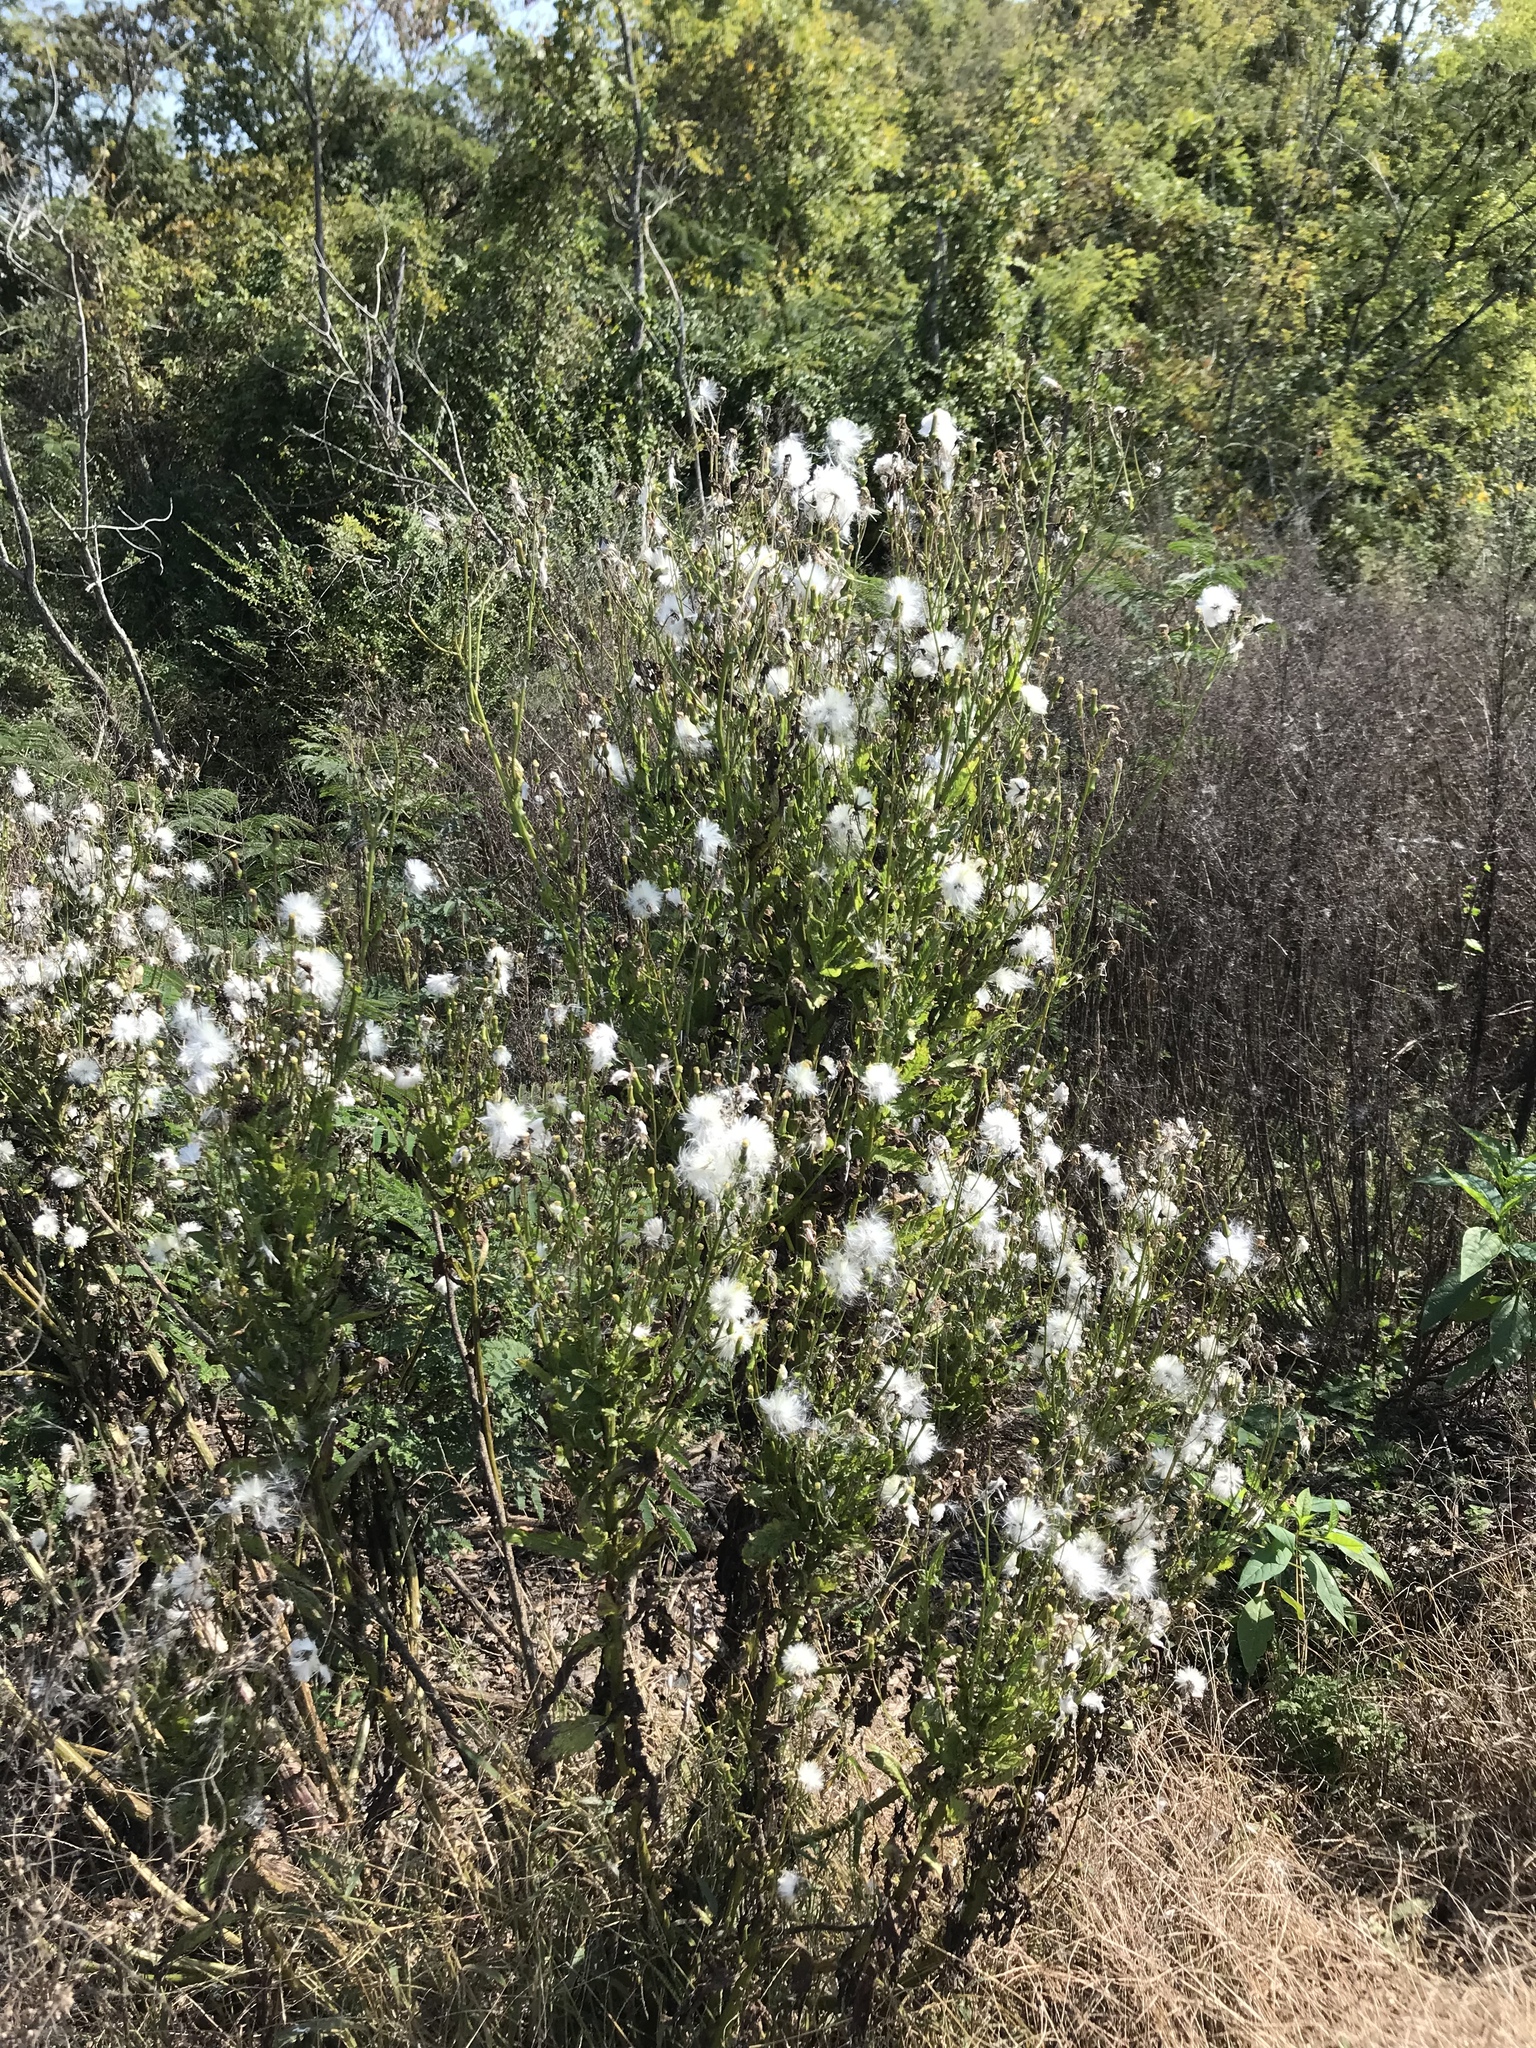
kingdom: Plantae
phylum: Tracheophyta
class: Magnoliopsida
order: Asterales
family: Asteraceae
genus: Erechtites
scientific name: Erechtites hieraciifolius
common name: American burnweed
